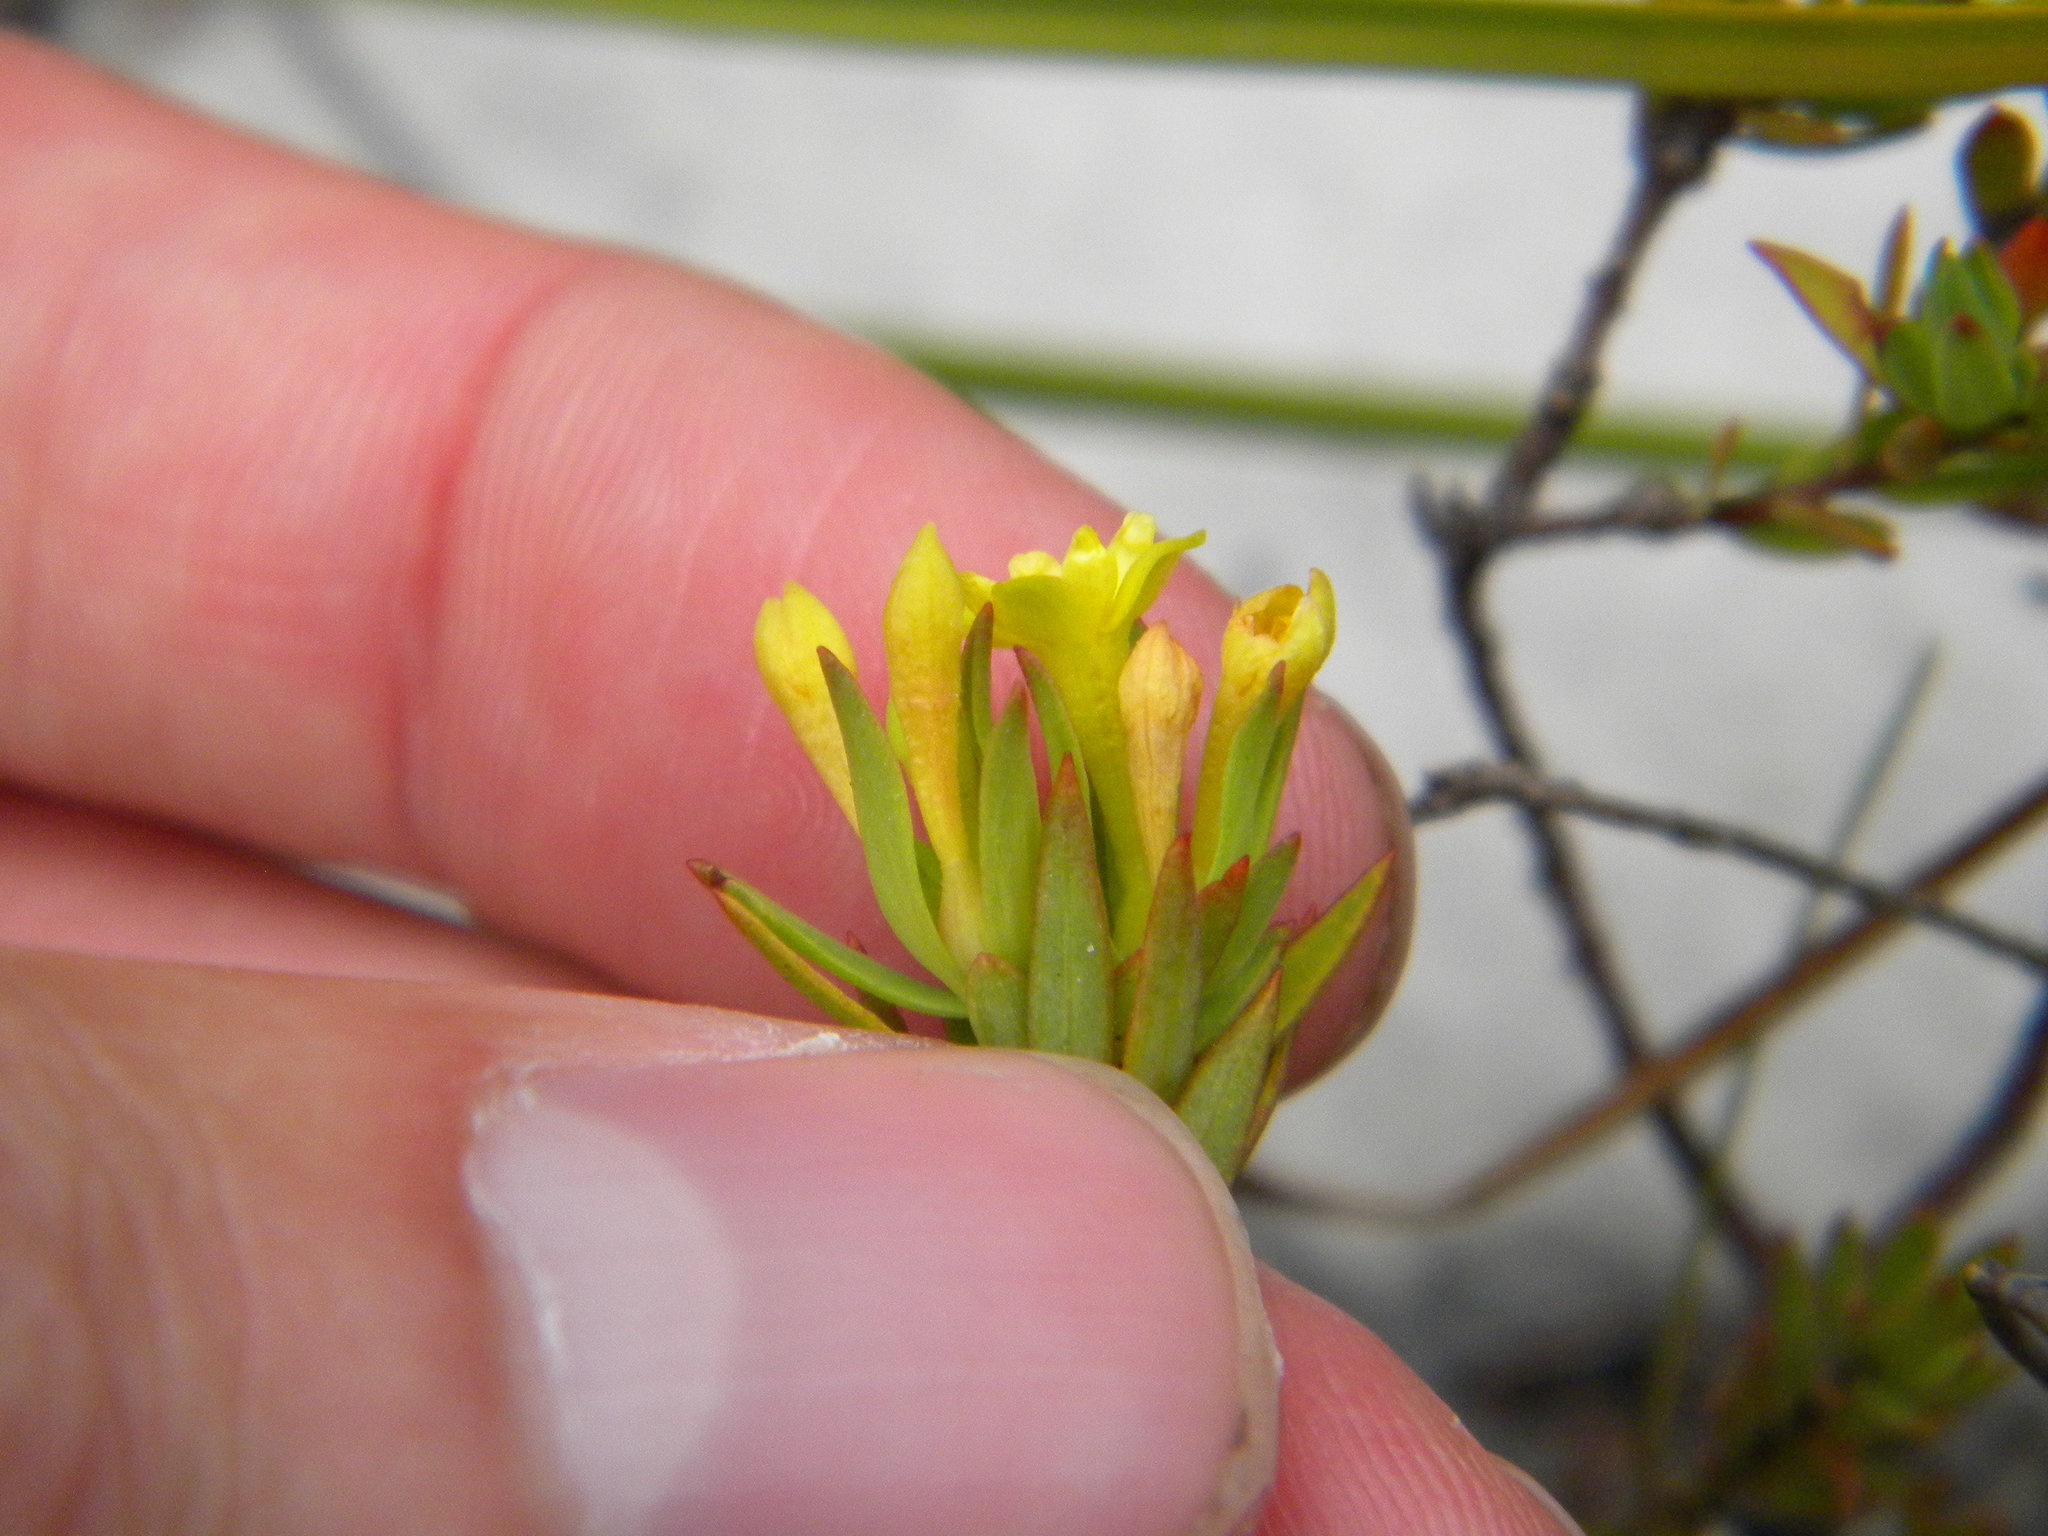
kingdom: Plantae
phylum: Tracheophyta
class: Magnoliopsida
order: Malvales
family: Thymelaeaceae
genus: Gnidia
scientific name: Gnidia juniperifolia
